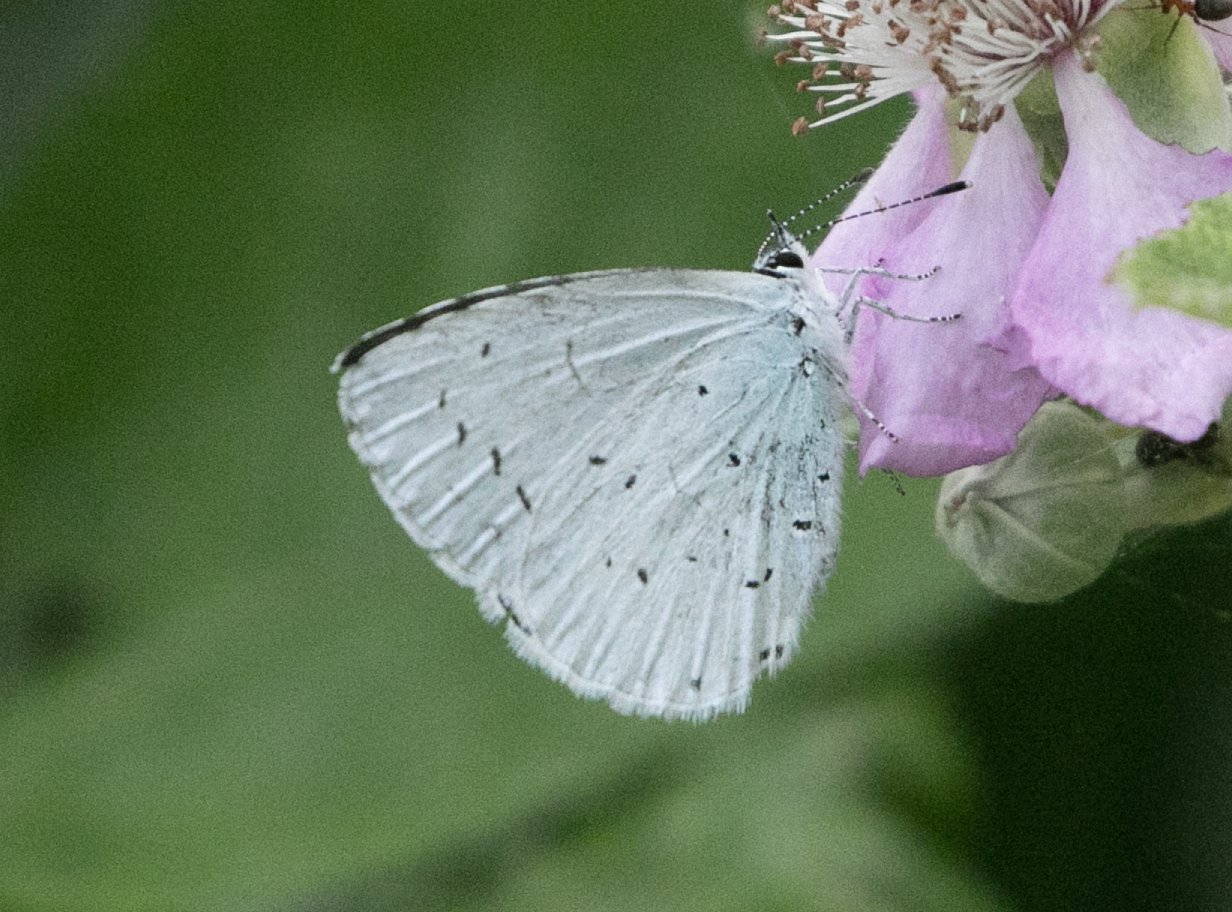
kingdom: Animalia
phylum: Arthropoda
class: Insecta
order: Lepidoptera
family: Lycaenidae
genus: Celastrina
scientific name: Celastrina argiolus
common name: Holly blue
